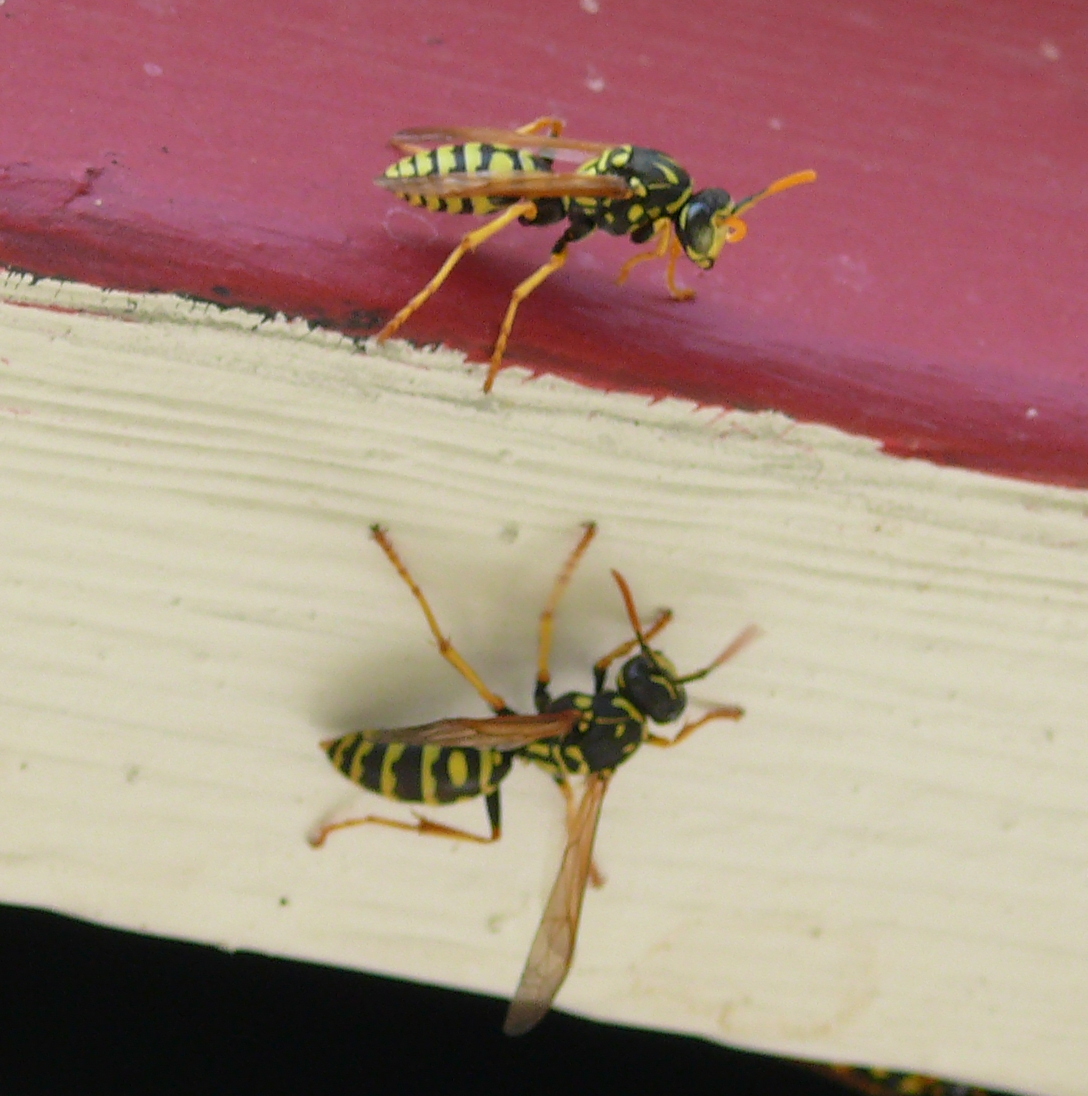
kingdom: Animalia
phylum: Arthropoda
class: Insecta
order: Hymenoptera
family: Eumenidae
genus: Polistes
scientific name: Polistes dominula
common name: Paper wasp
